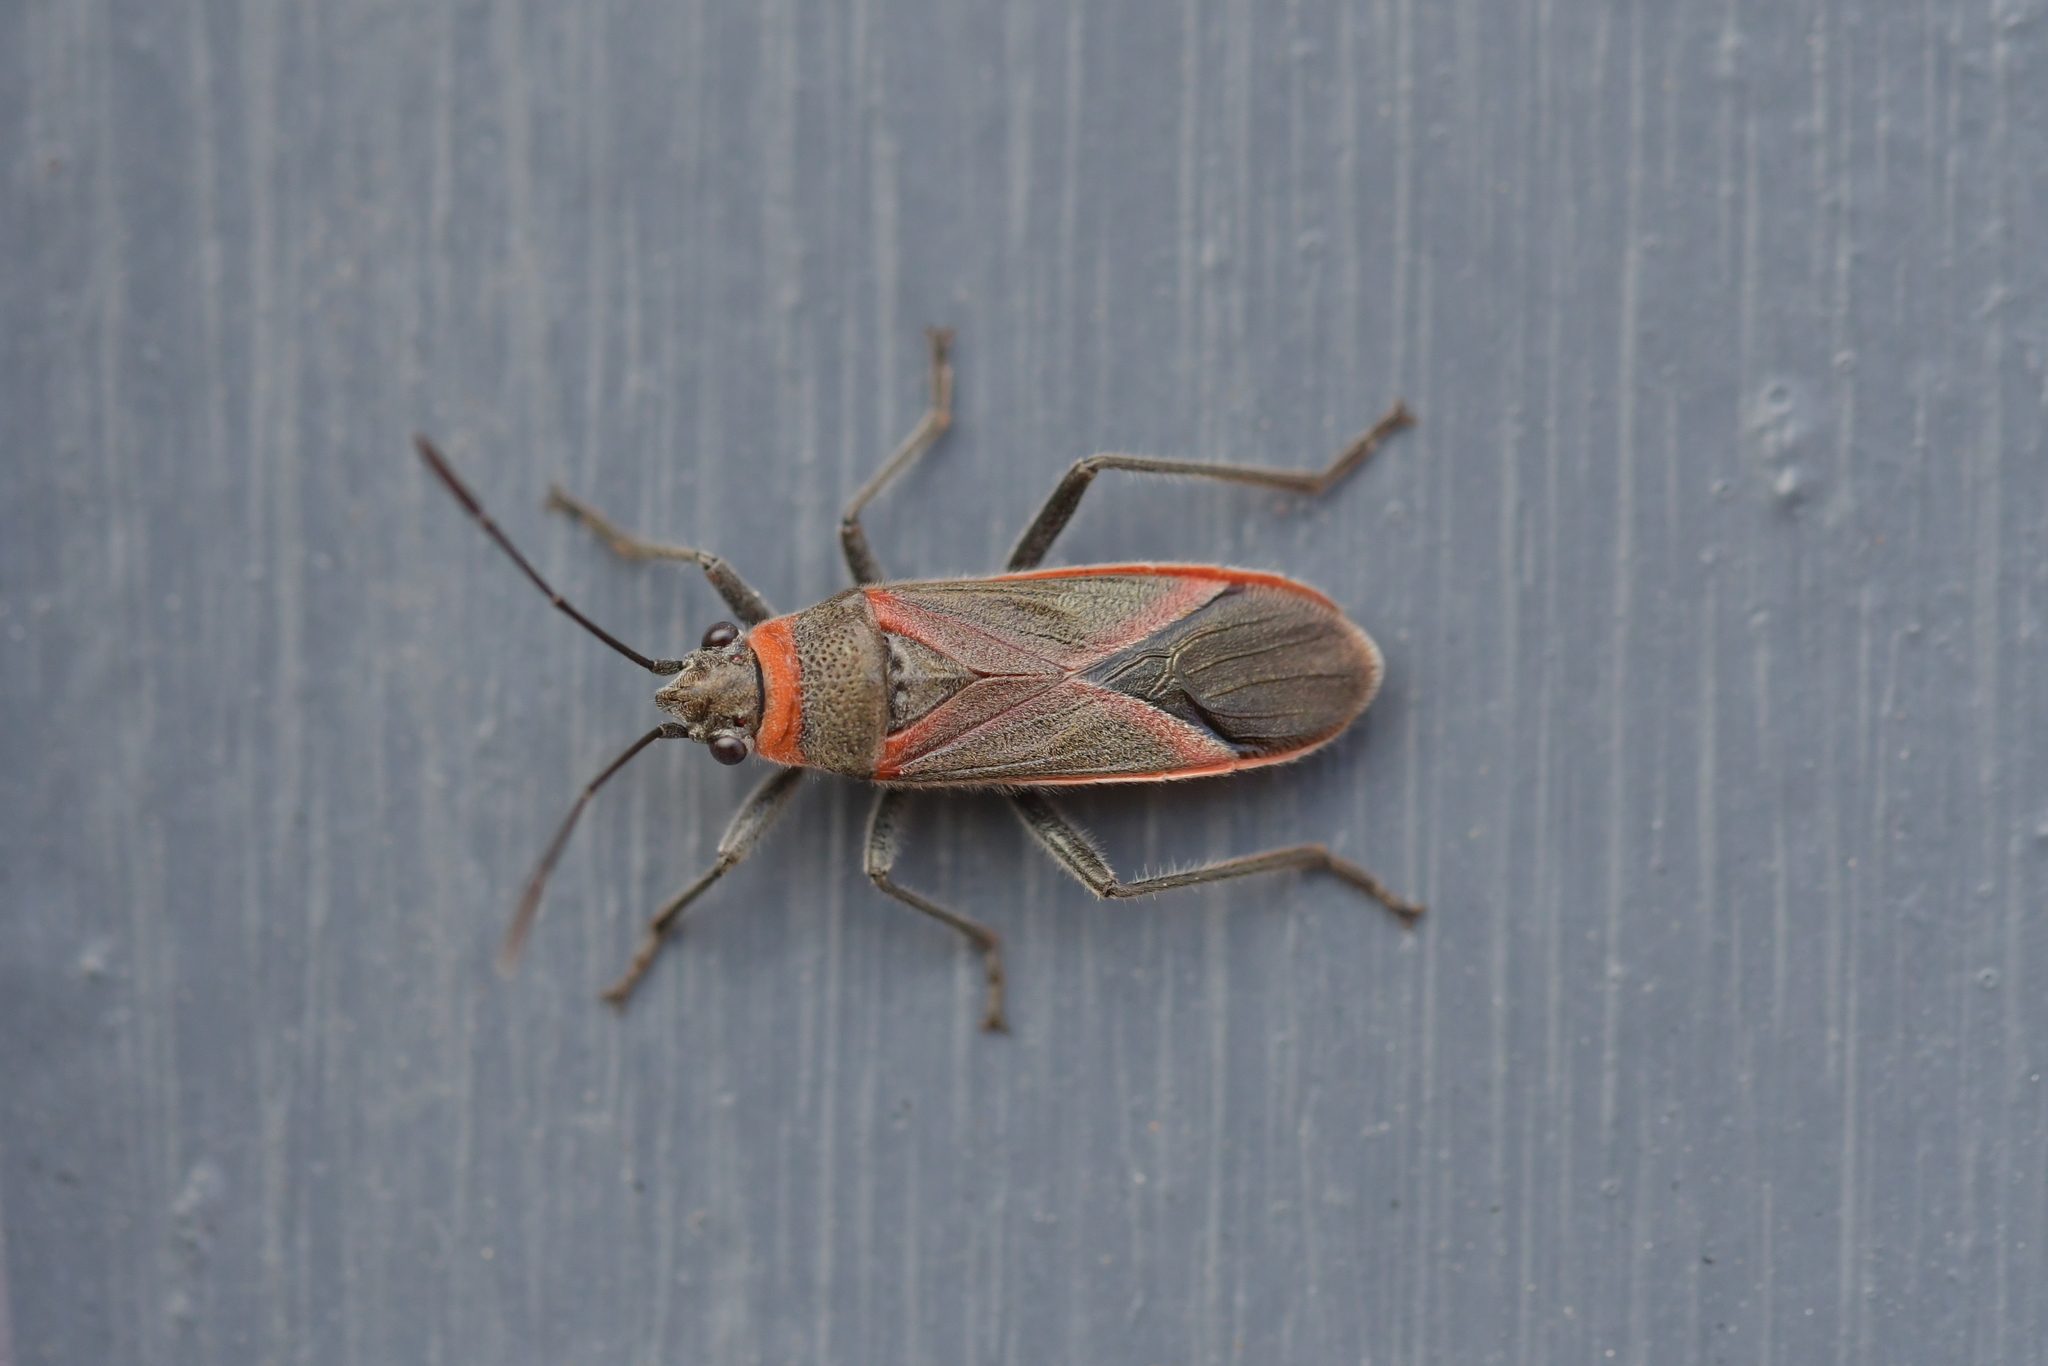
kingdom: Animalia
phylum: Arthropoda
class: Insecta
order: Hemiptera
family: Lygaeidae
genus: Arocatus
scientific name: Arocatus rusticus
